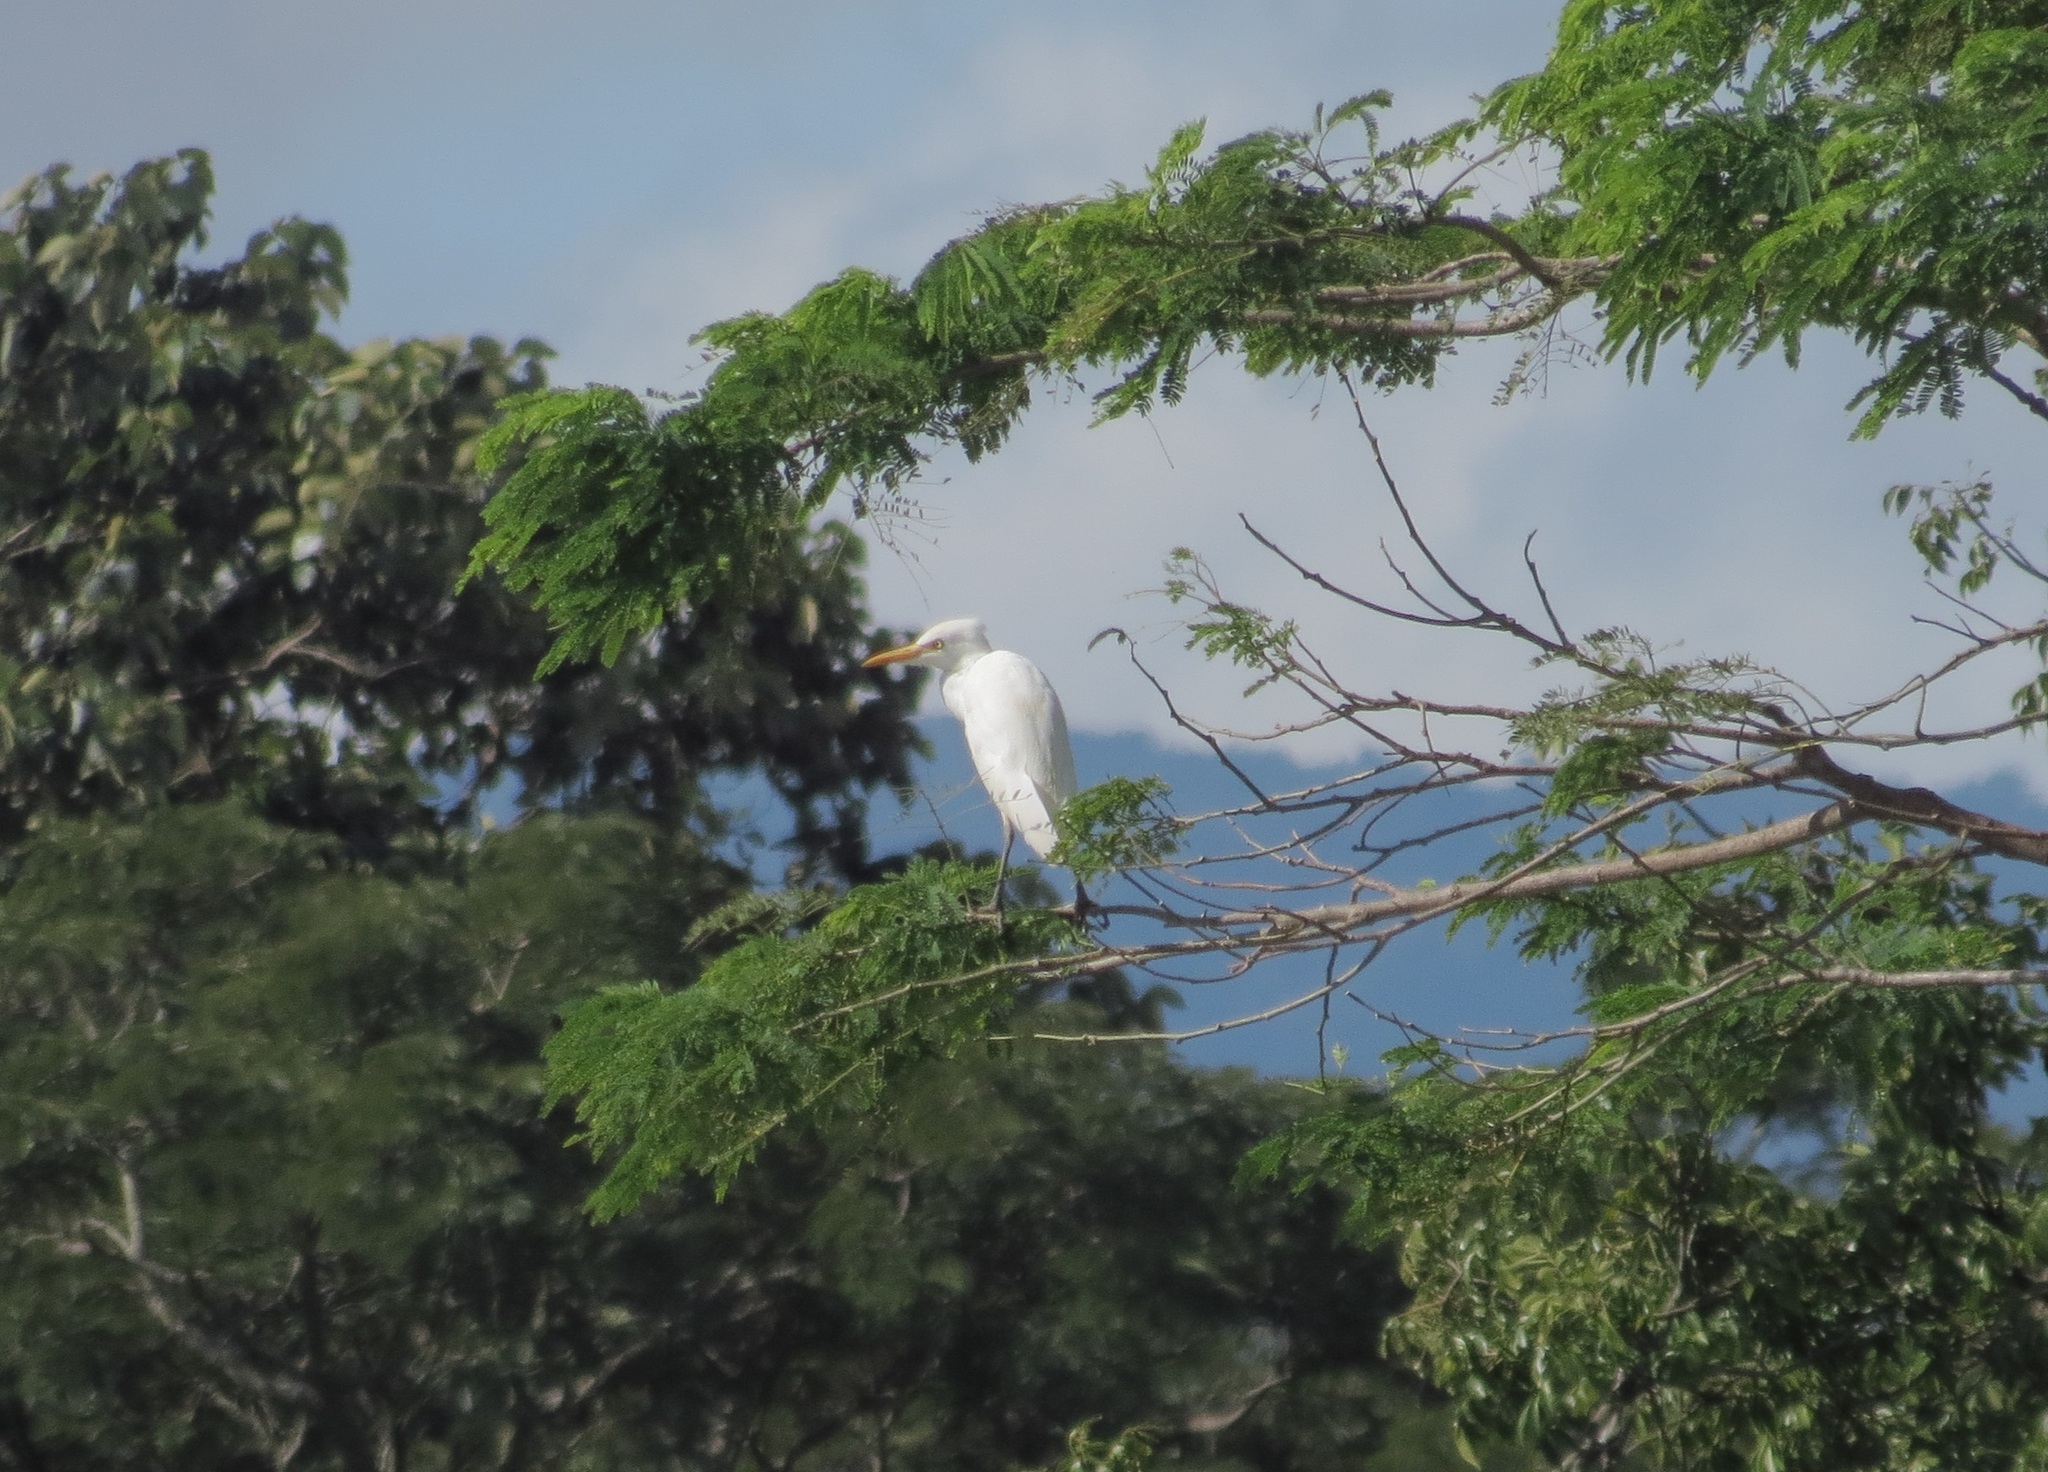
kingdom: Animalia
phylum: Chordata
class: Aves
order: Pelecaniformes
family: Ardeidae
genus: Bubulcus
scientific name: Bubulcus ibis
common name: Cattle egret
